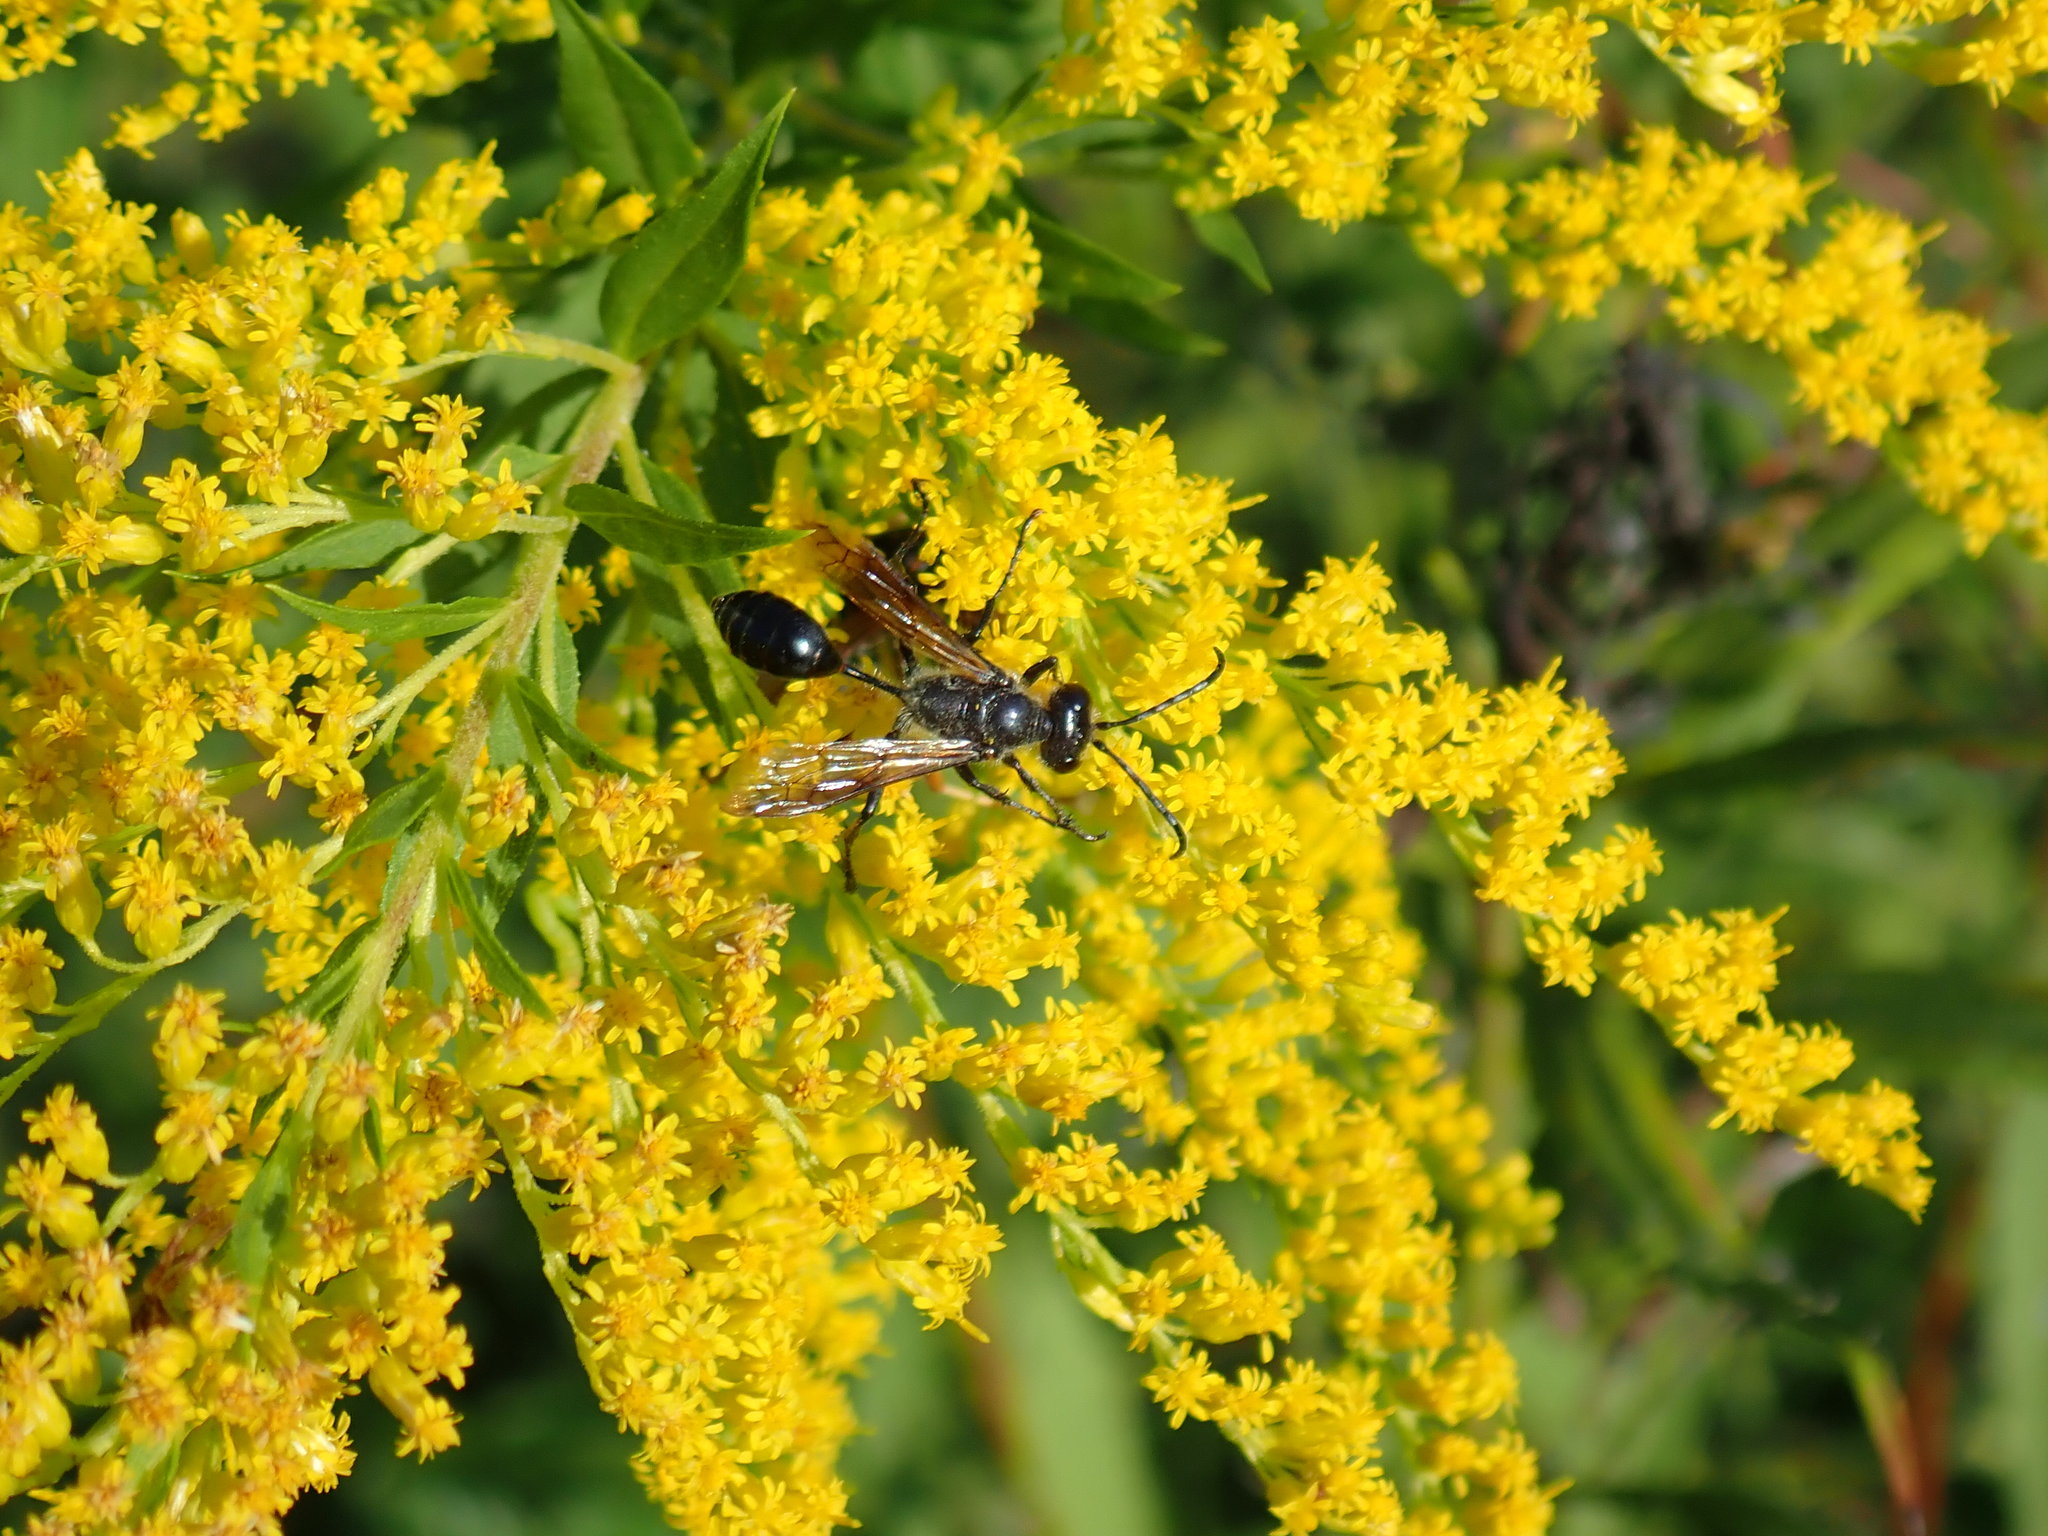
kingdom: Animalia
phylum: Arthropoda
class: Insecta
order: Hymenoptera
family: Sphecidae
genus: Isodontia
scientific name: Isodontia mexicana
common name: Mud dauber
